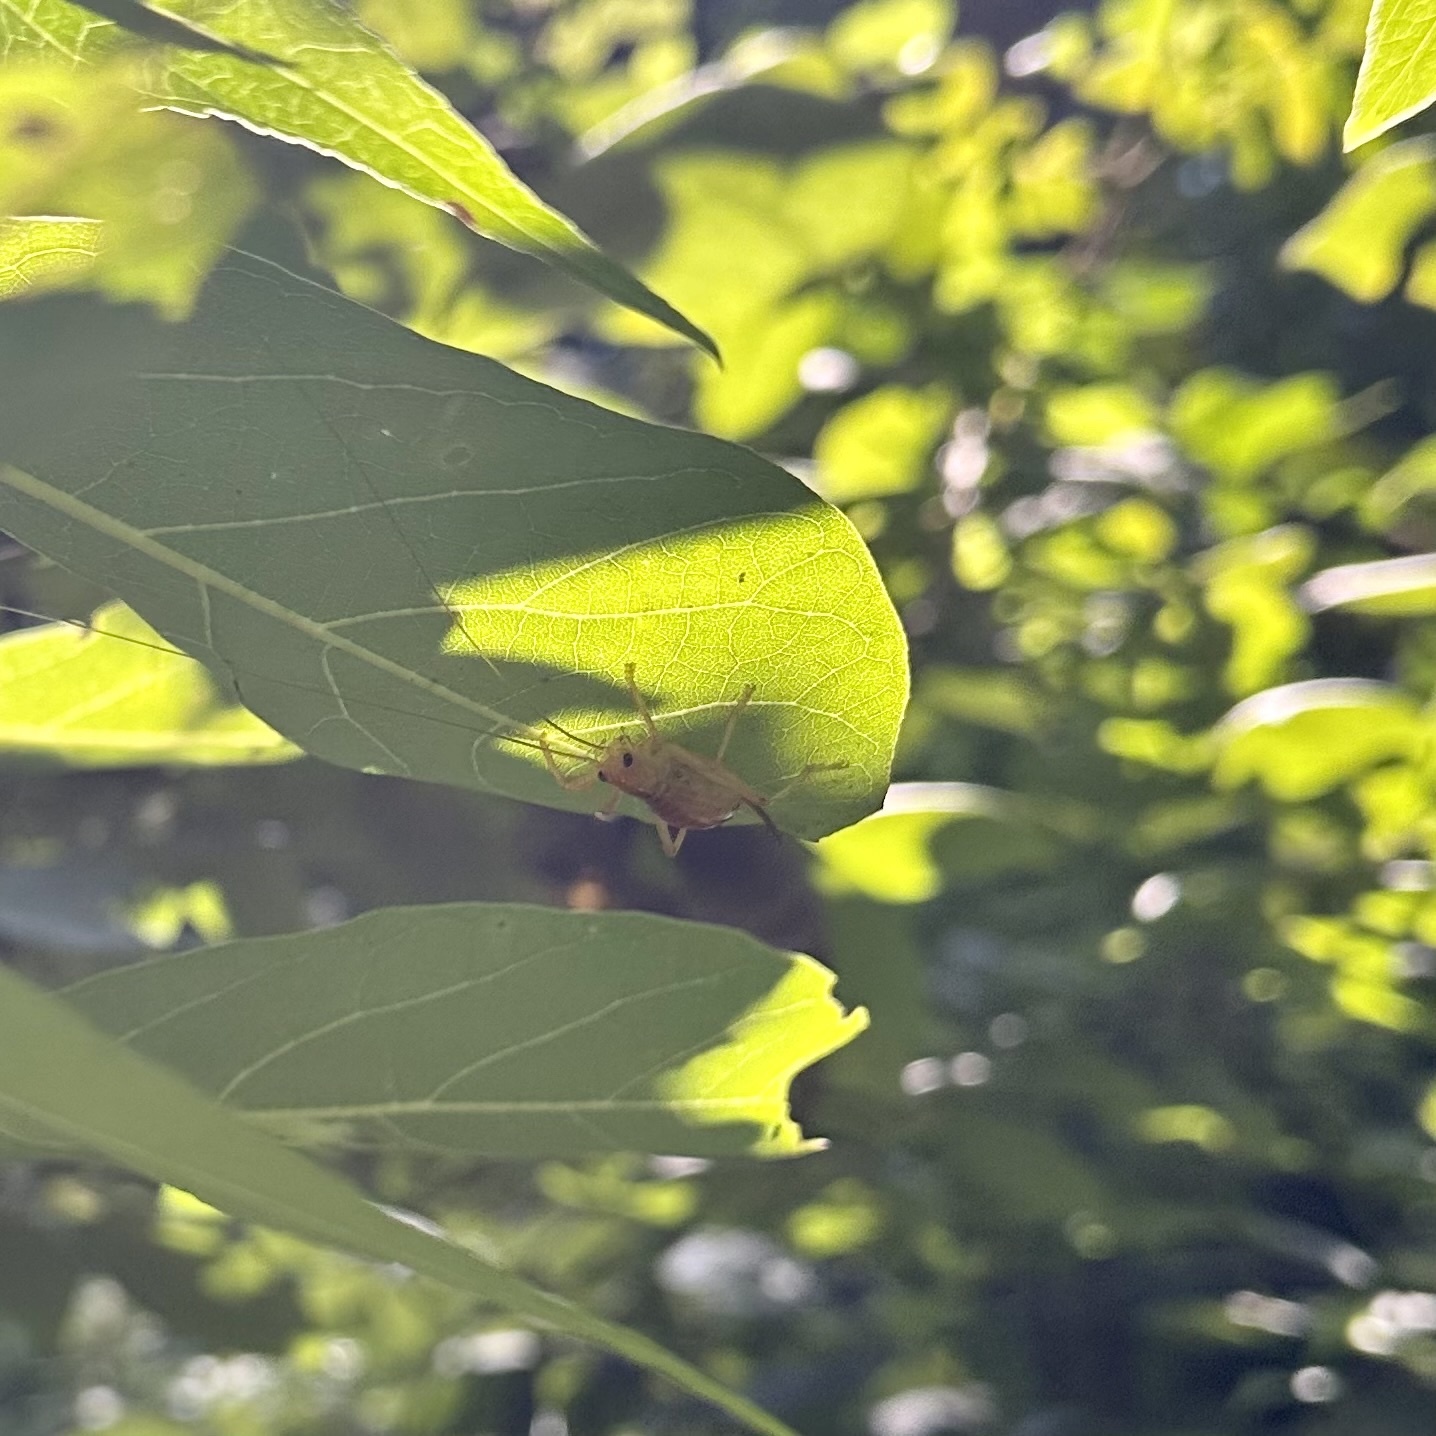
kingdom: Animalia
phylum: Arthropoda
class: Insecta
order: Orthoptera
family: Gryllacrididae
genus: Camptonotus
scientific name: Camptonotus carolinensis
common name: Carolina leaf-roller
